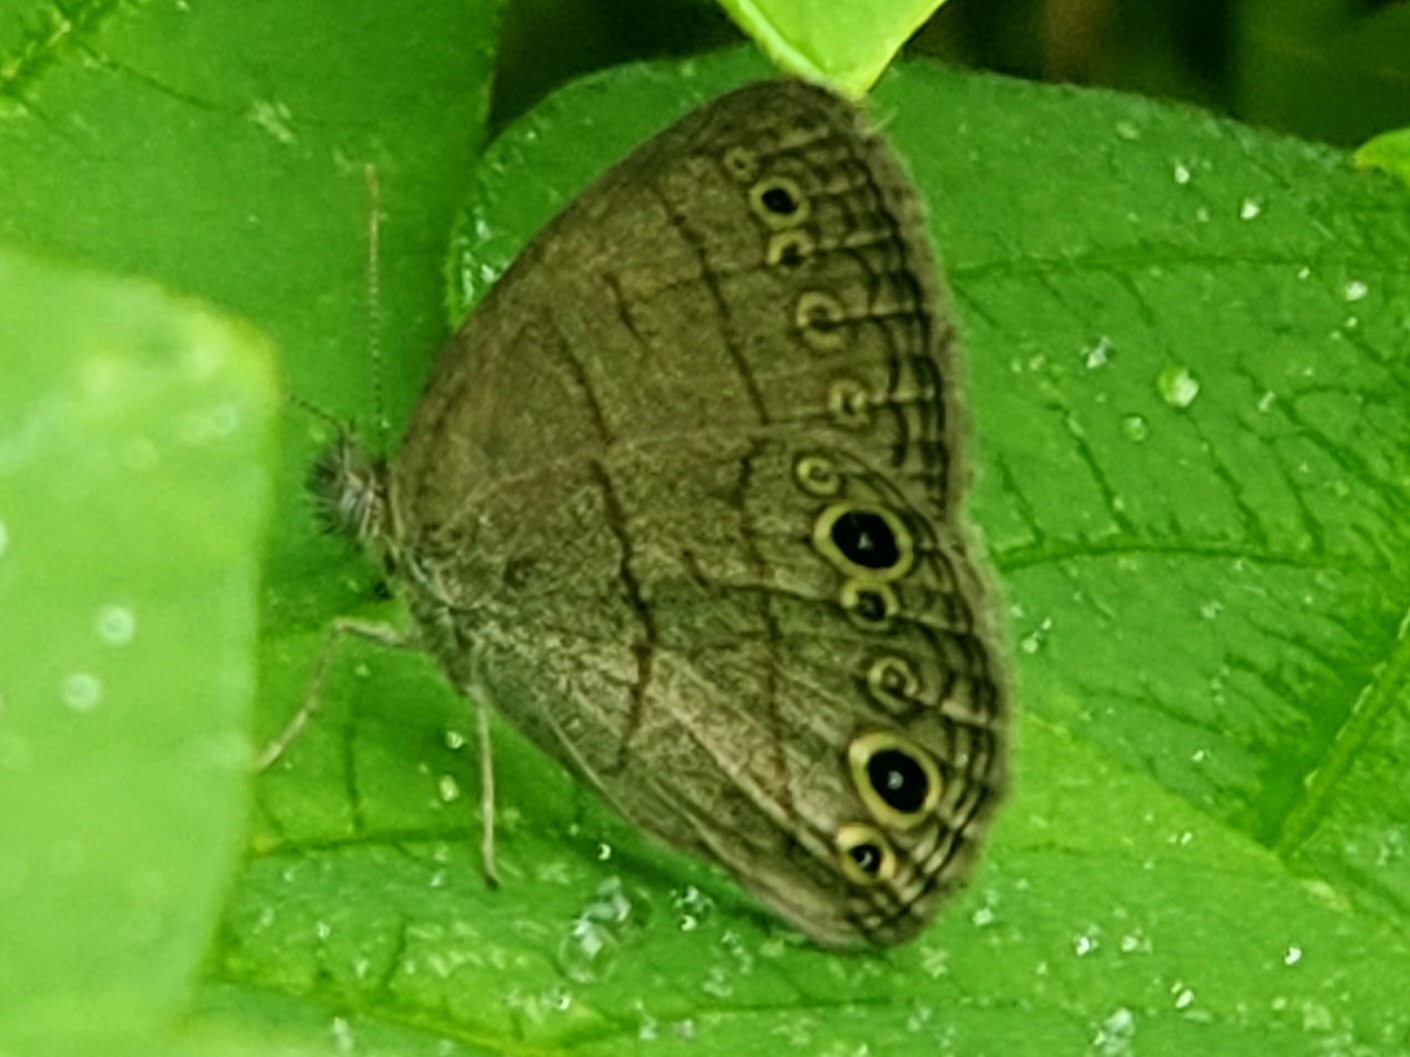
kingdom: Animalia
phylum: Arthropoda
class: Insecta
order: Lepidoptera
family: Nymphalidae
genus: Hermeuptychia
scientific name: Hermeuptychia hermes
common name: Hermes satyr
